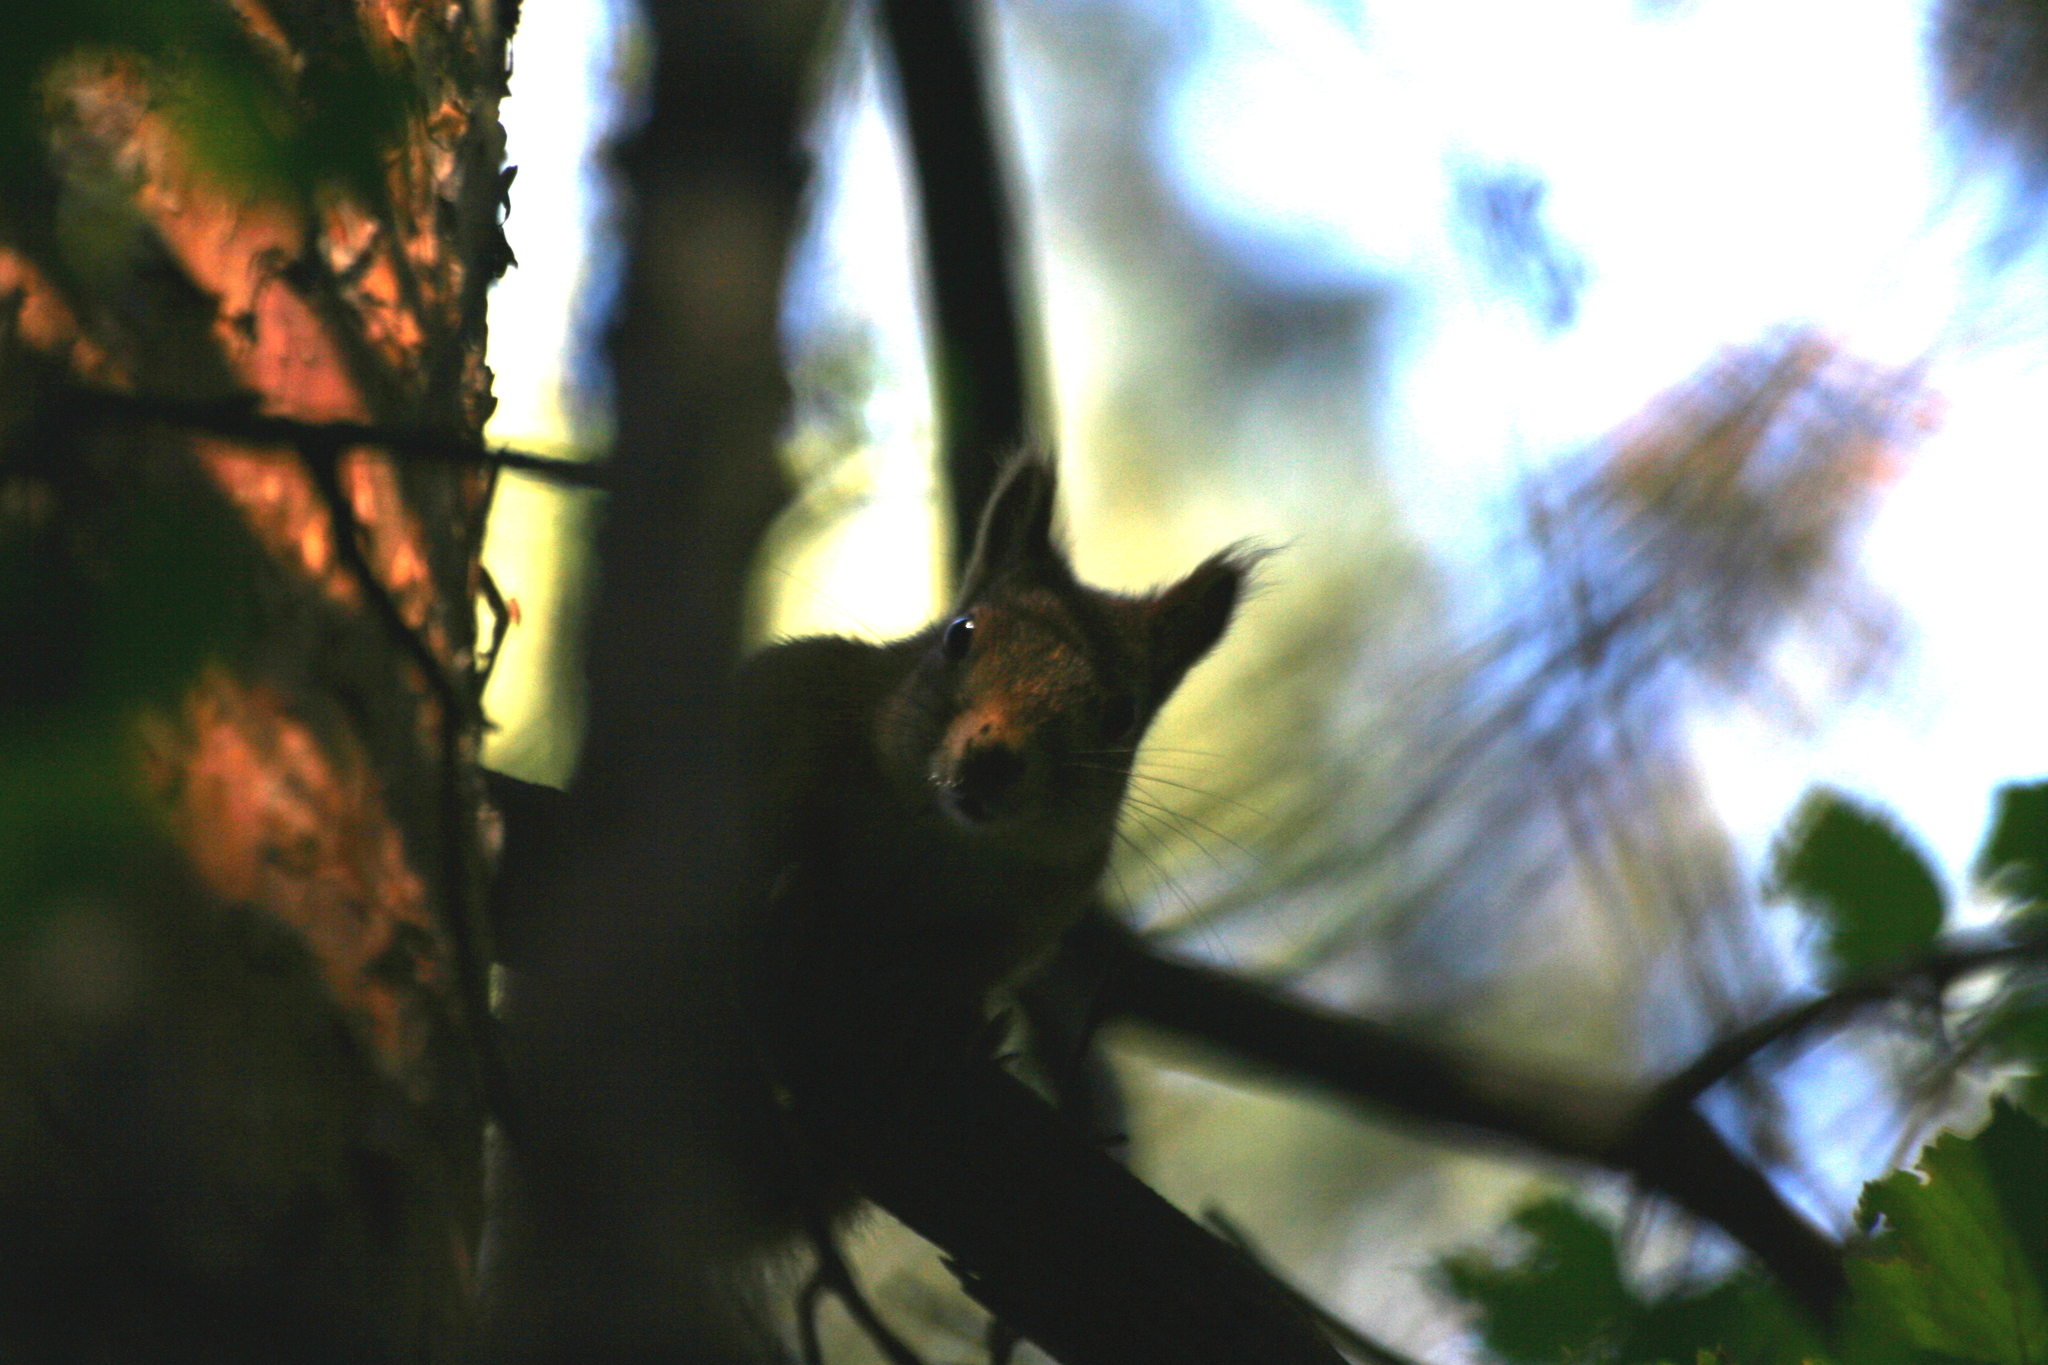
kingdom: Animalia
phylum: Chordata
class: Mammalia
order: Rodentia
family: Sciuridae
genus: Sciurus
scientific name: Sciurus vulgaris
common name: Eurasian red squirrel
